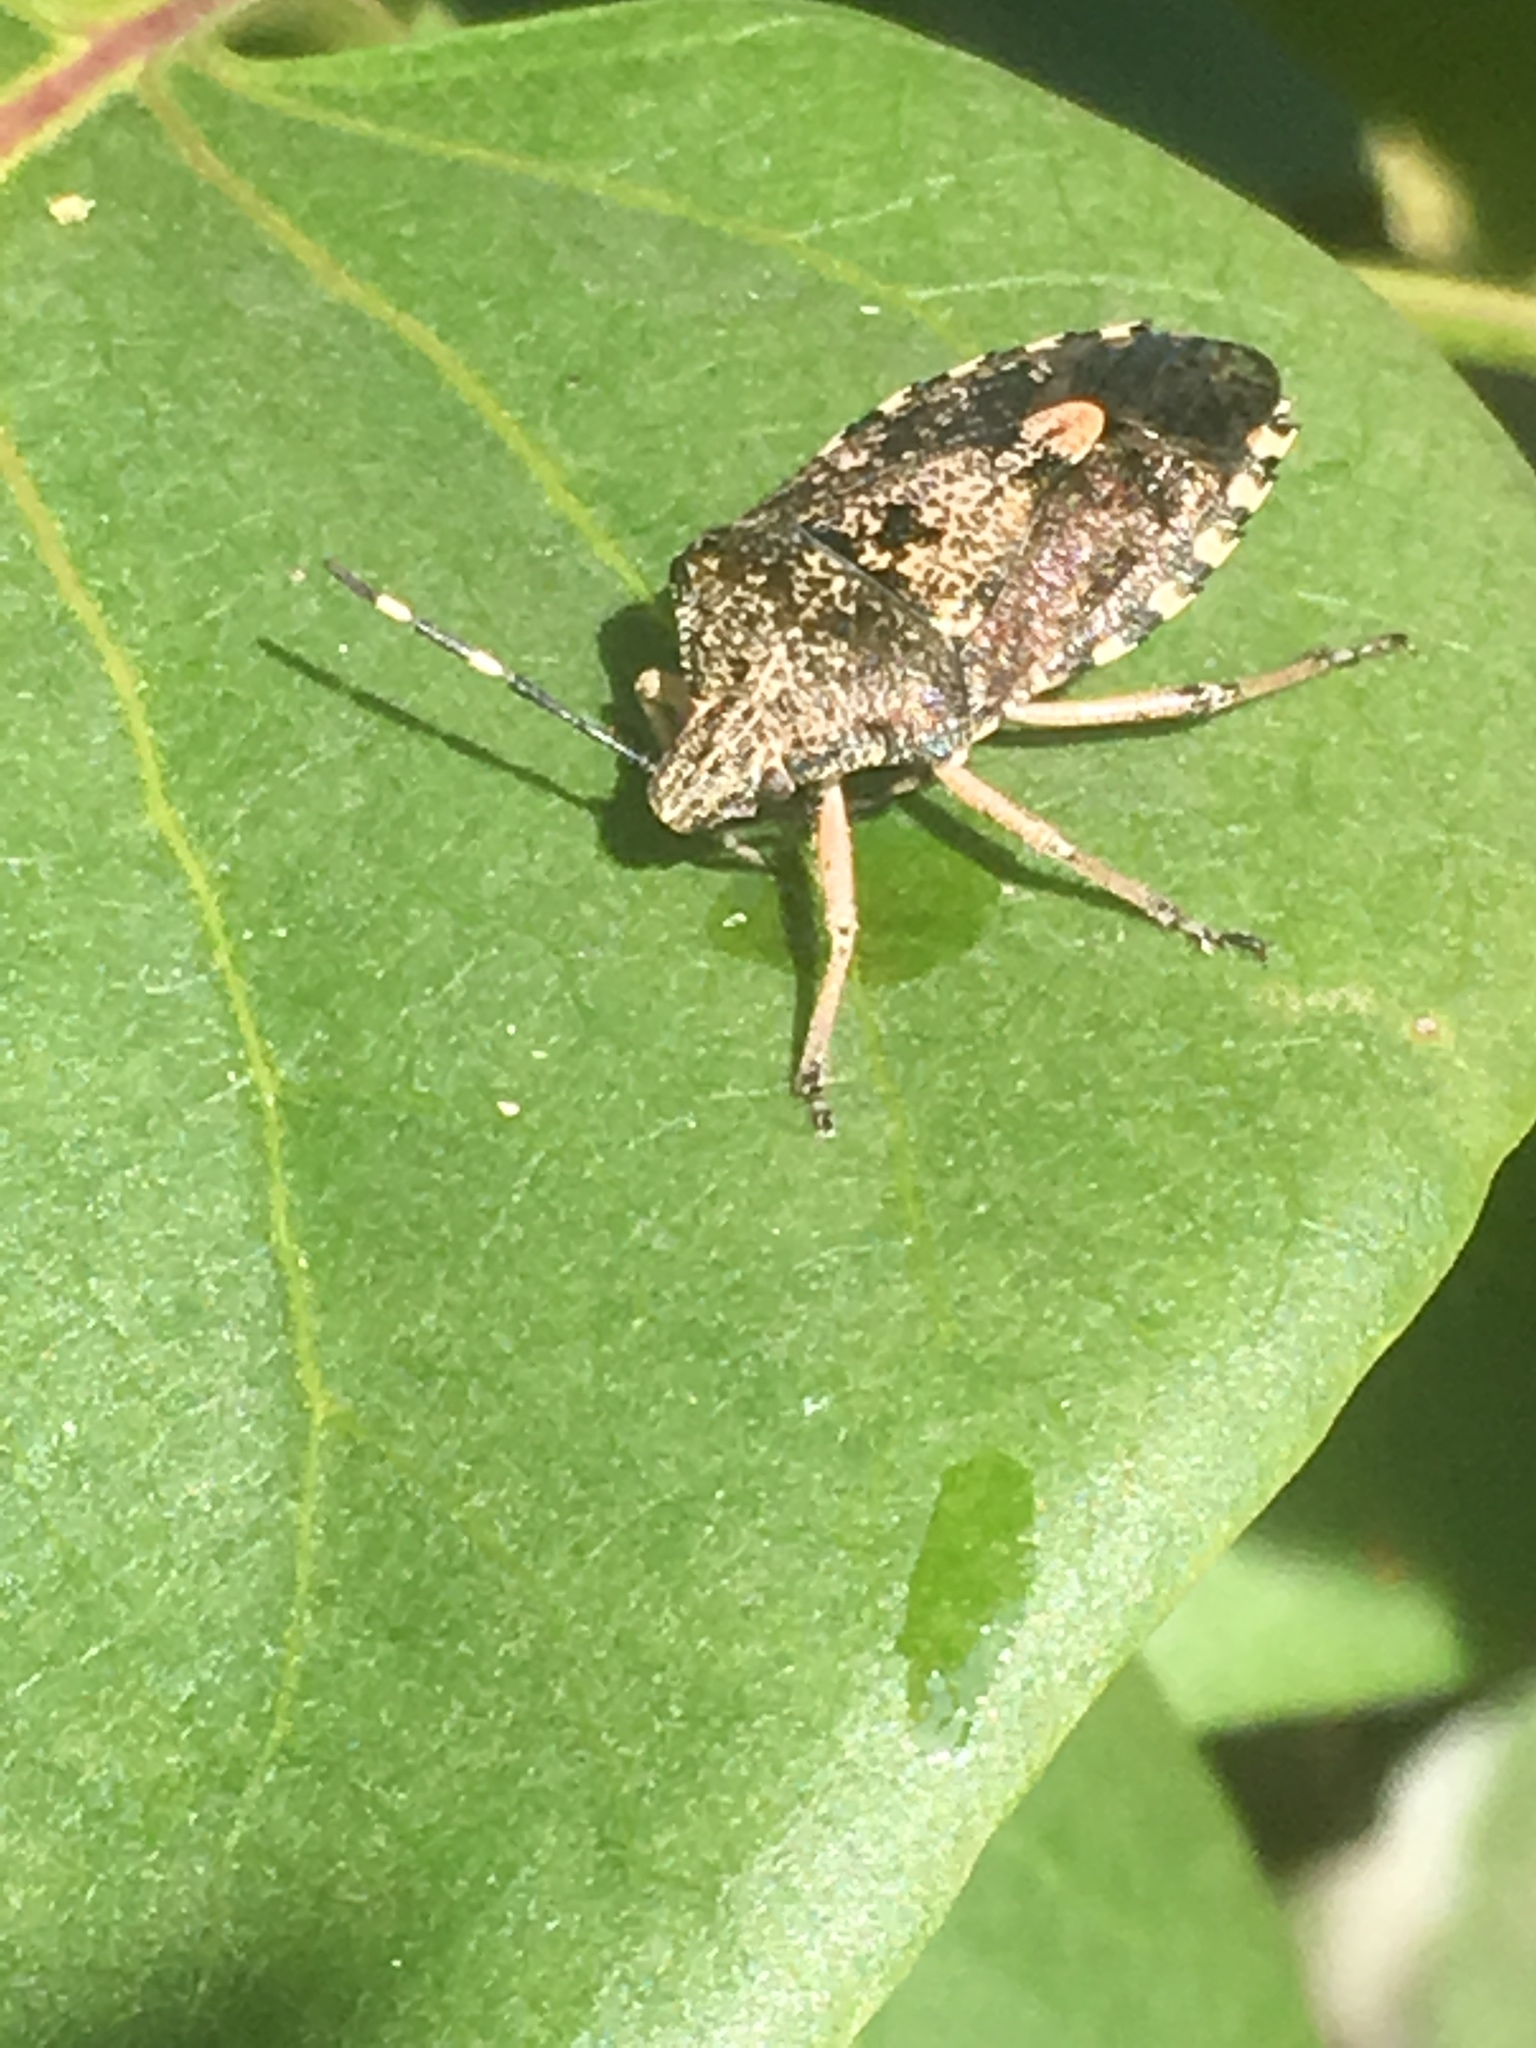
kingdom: Animalia
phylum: Arthropoda
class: Insecta
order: Hemiptera
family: Pentatomidae
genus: Rhaphigaster
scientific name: Rhaphigaster nebulosa
